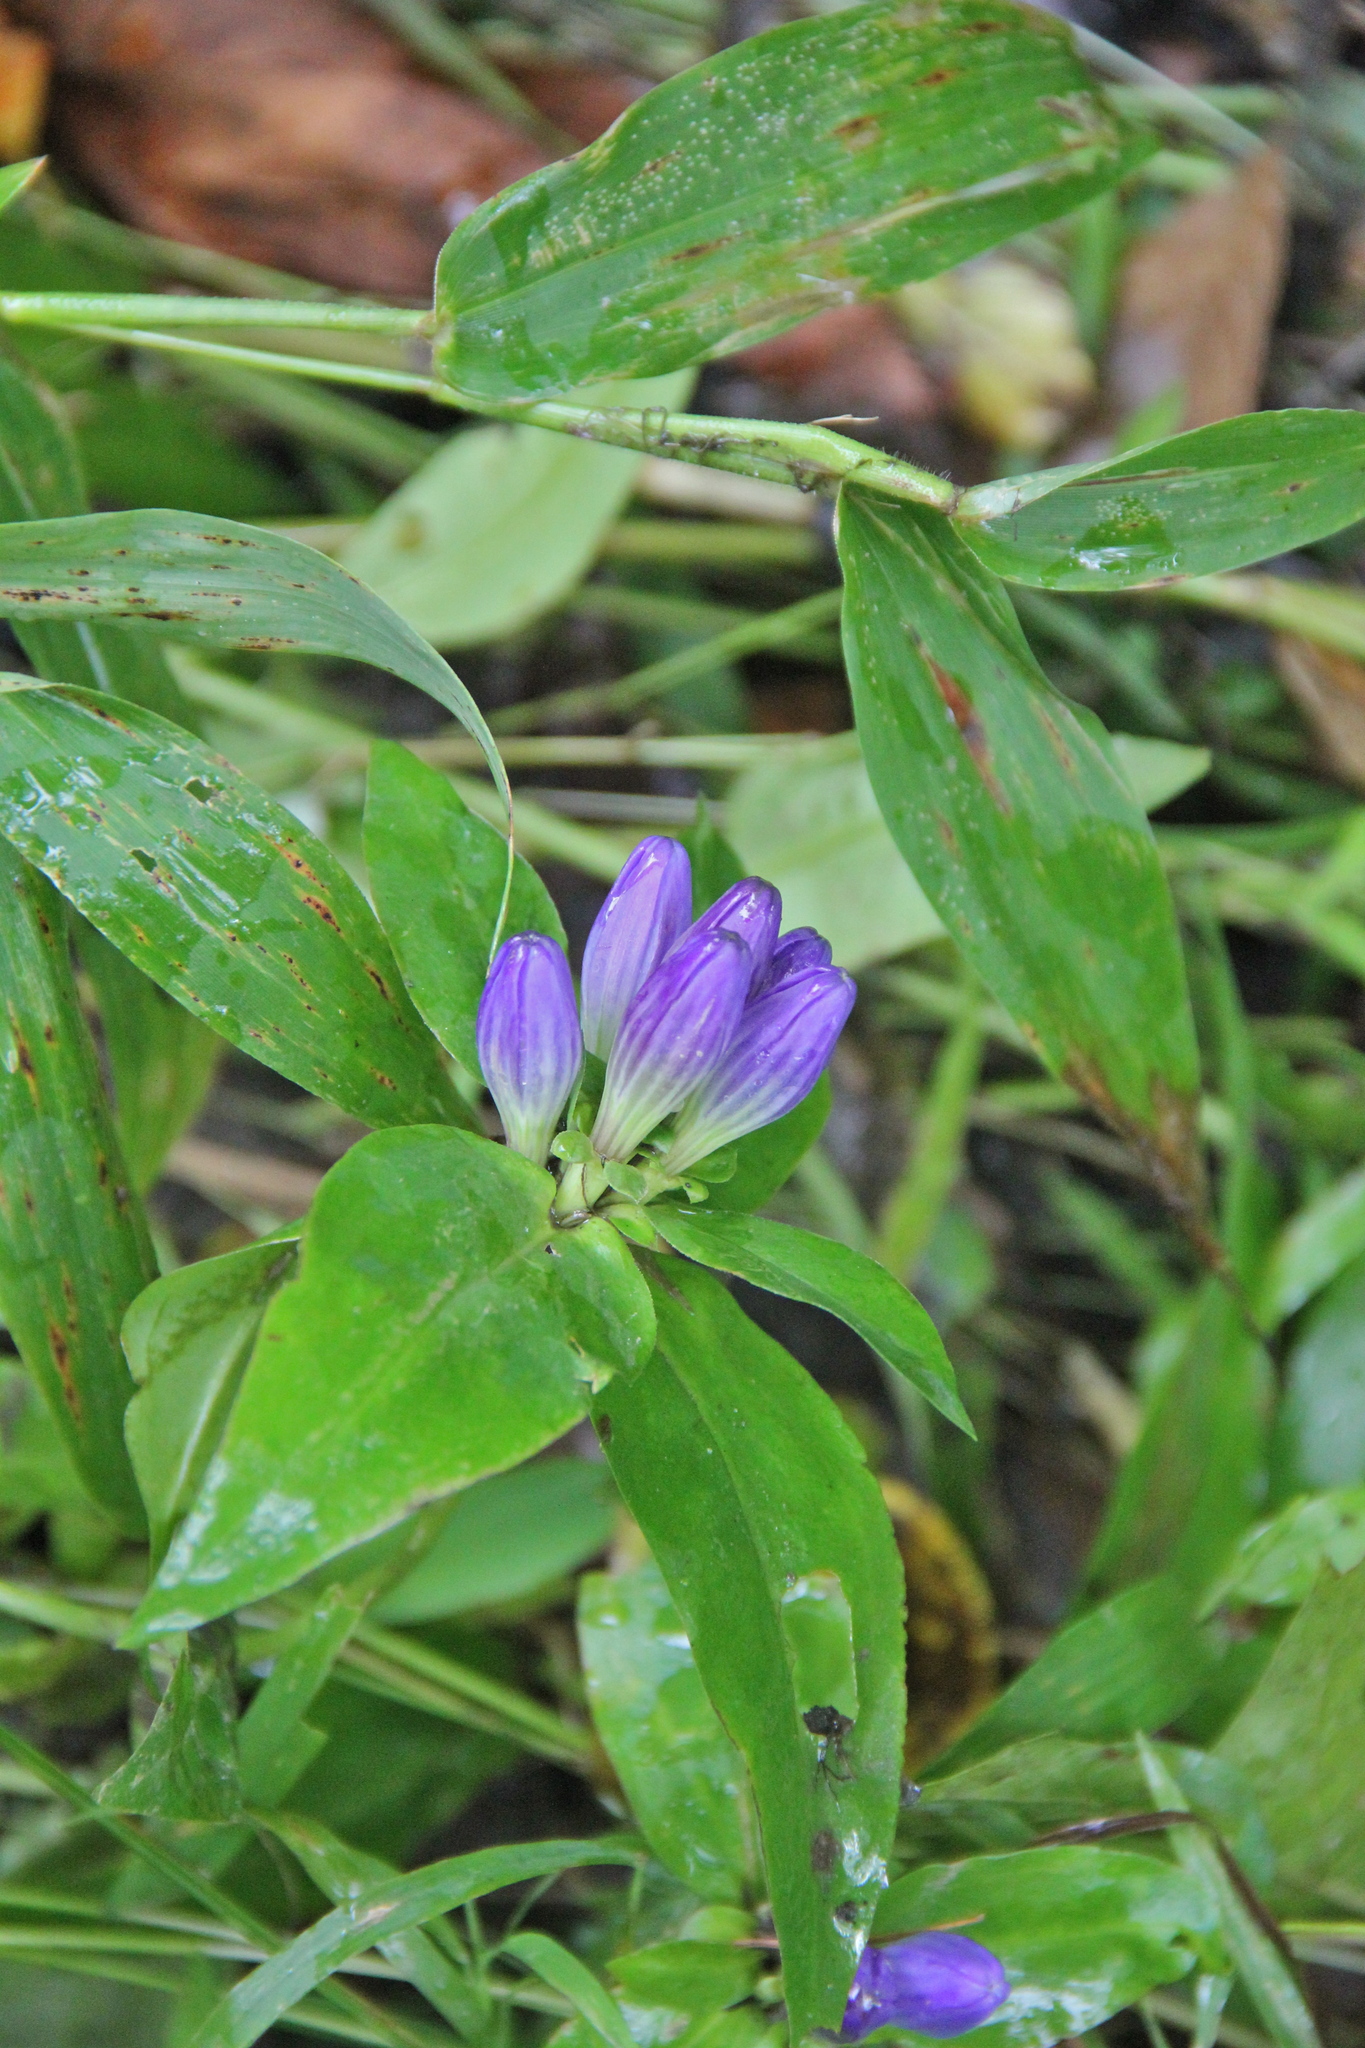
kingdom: Plantae
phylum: Tracheophyta
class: Magnoliopsida
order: Gentianales
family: Gentianaceae
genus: Gentiana
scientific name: Gentiana clausa
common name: Blind gentian
